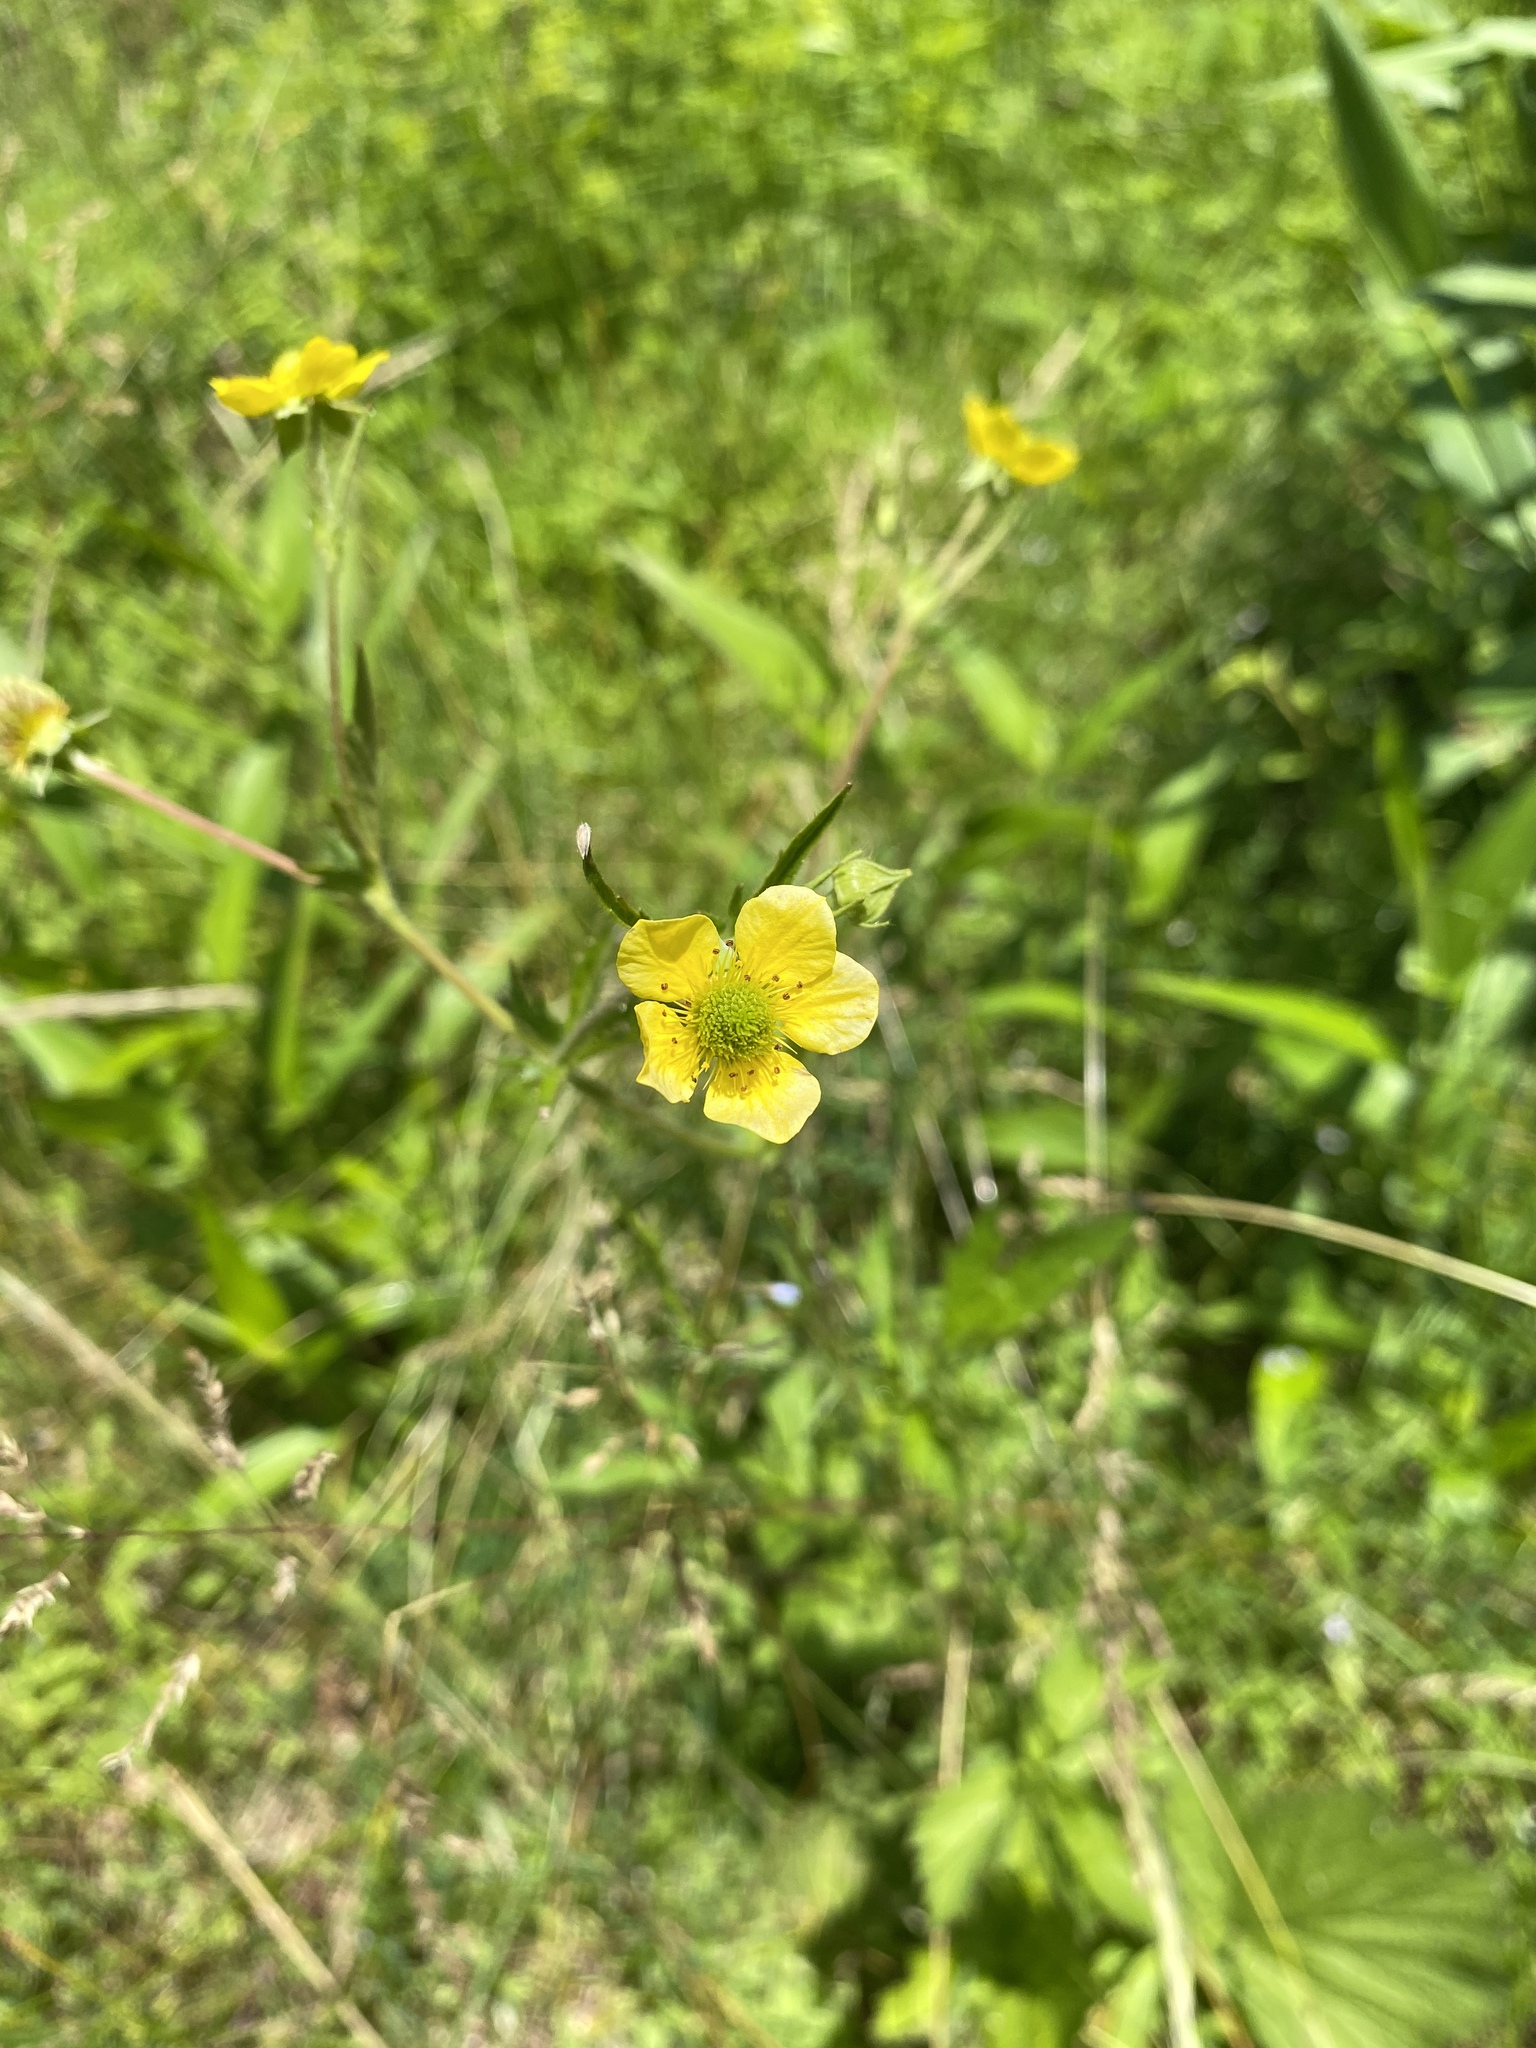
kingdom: Plantae
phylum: Tracheophyta
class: Magnoliopsida
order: Rosales
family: Rosaceae
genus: Potentilla
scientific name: Potentilla norvegica
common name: Ternate-leaved cinquefoil
